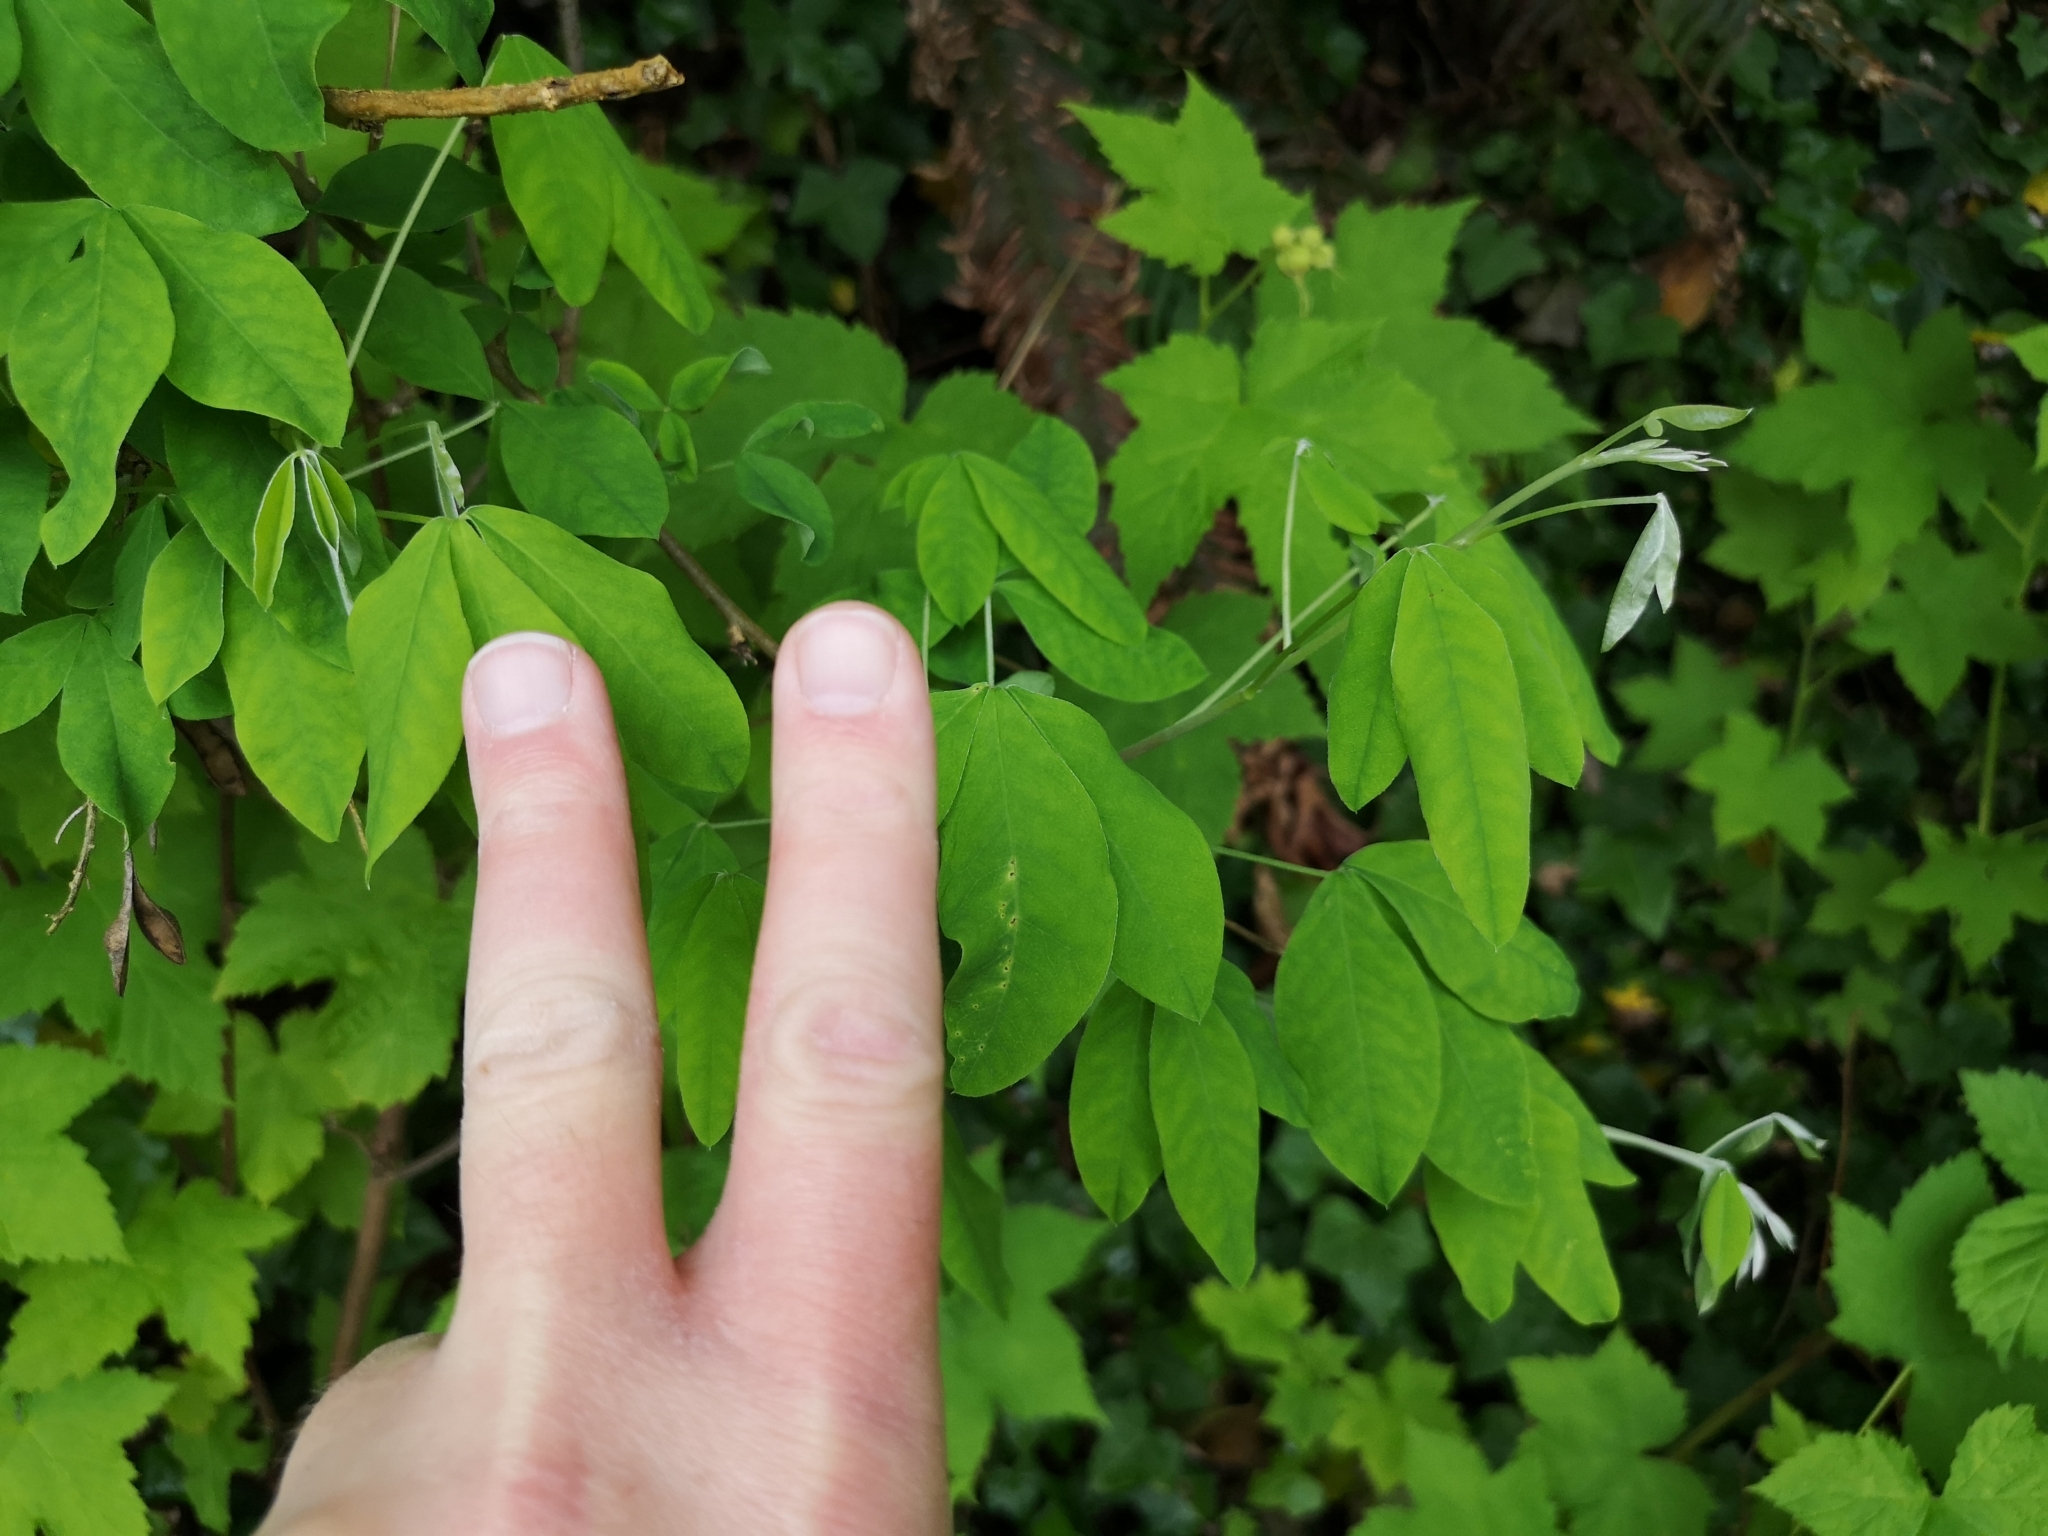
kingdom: Plantae
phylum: Tracheophyta
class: Magnoliopsida
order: Fabales
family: Fabaceae
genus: Laburnum
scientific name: Laburnum anagyroides
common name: Laburnum
